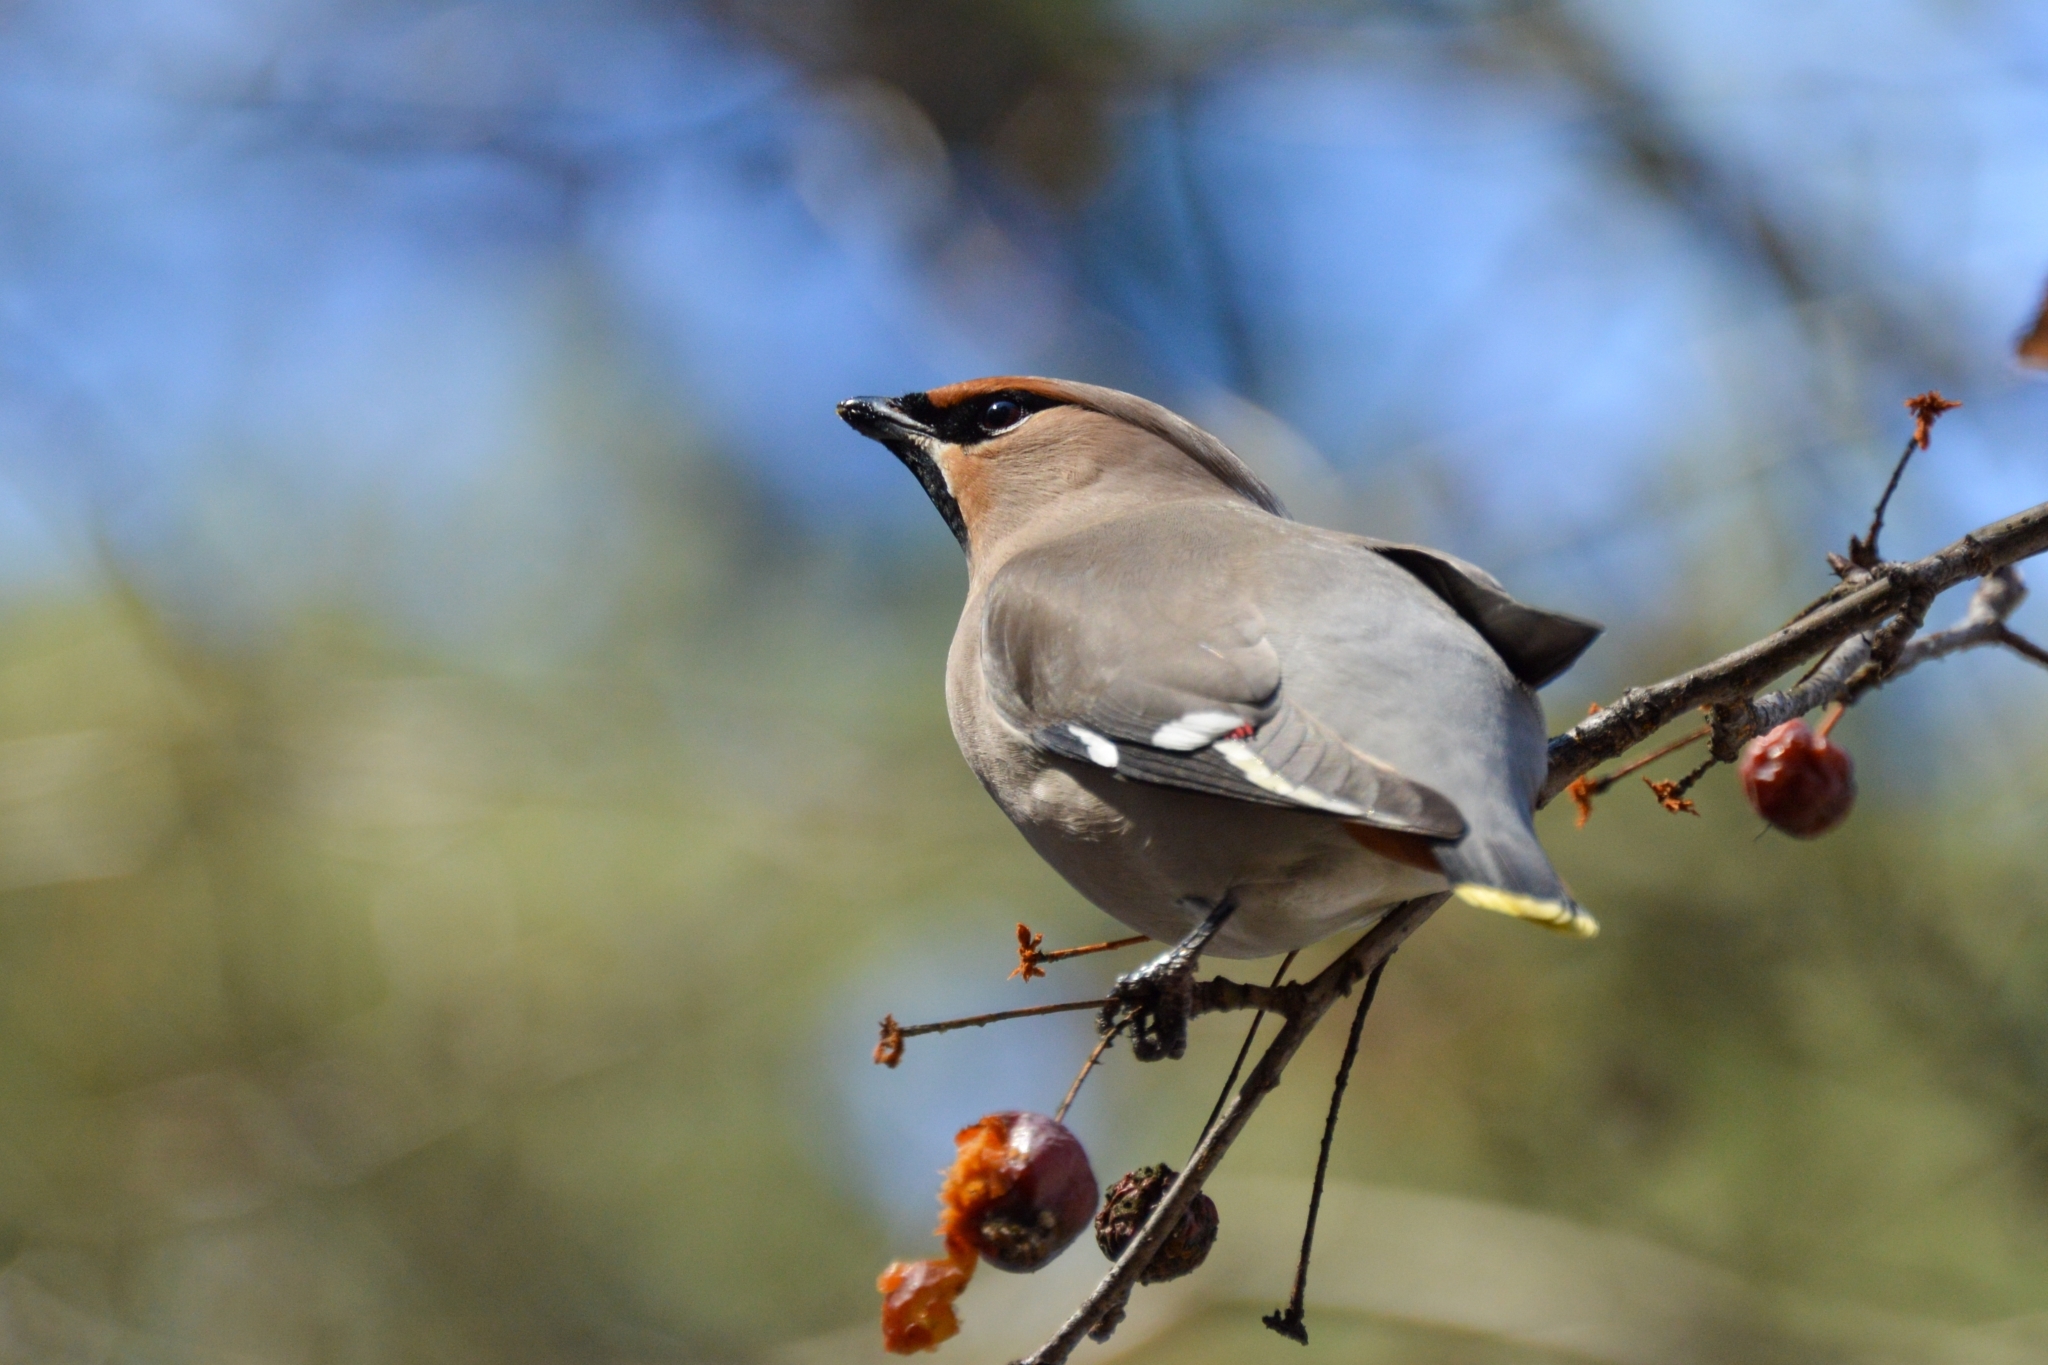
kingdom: Animalia
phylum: Chordata
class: Aves
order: Passeriformes
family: Bombycillidae
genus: Bombycilla
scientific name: Bombycilla garrulus
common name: Bohemian waxwing
